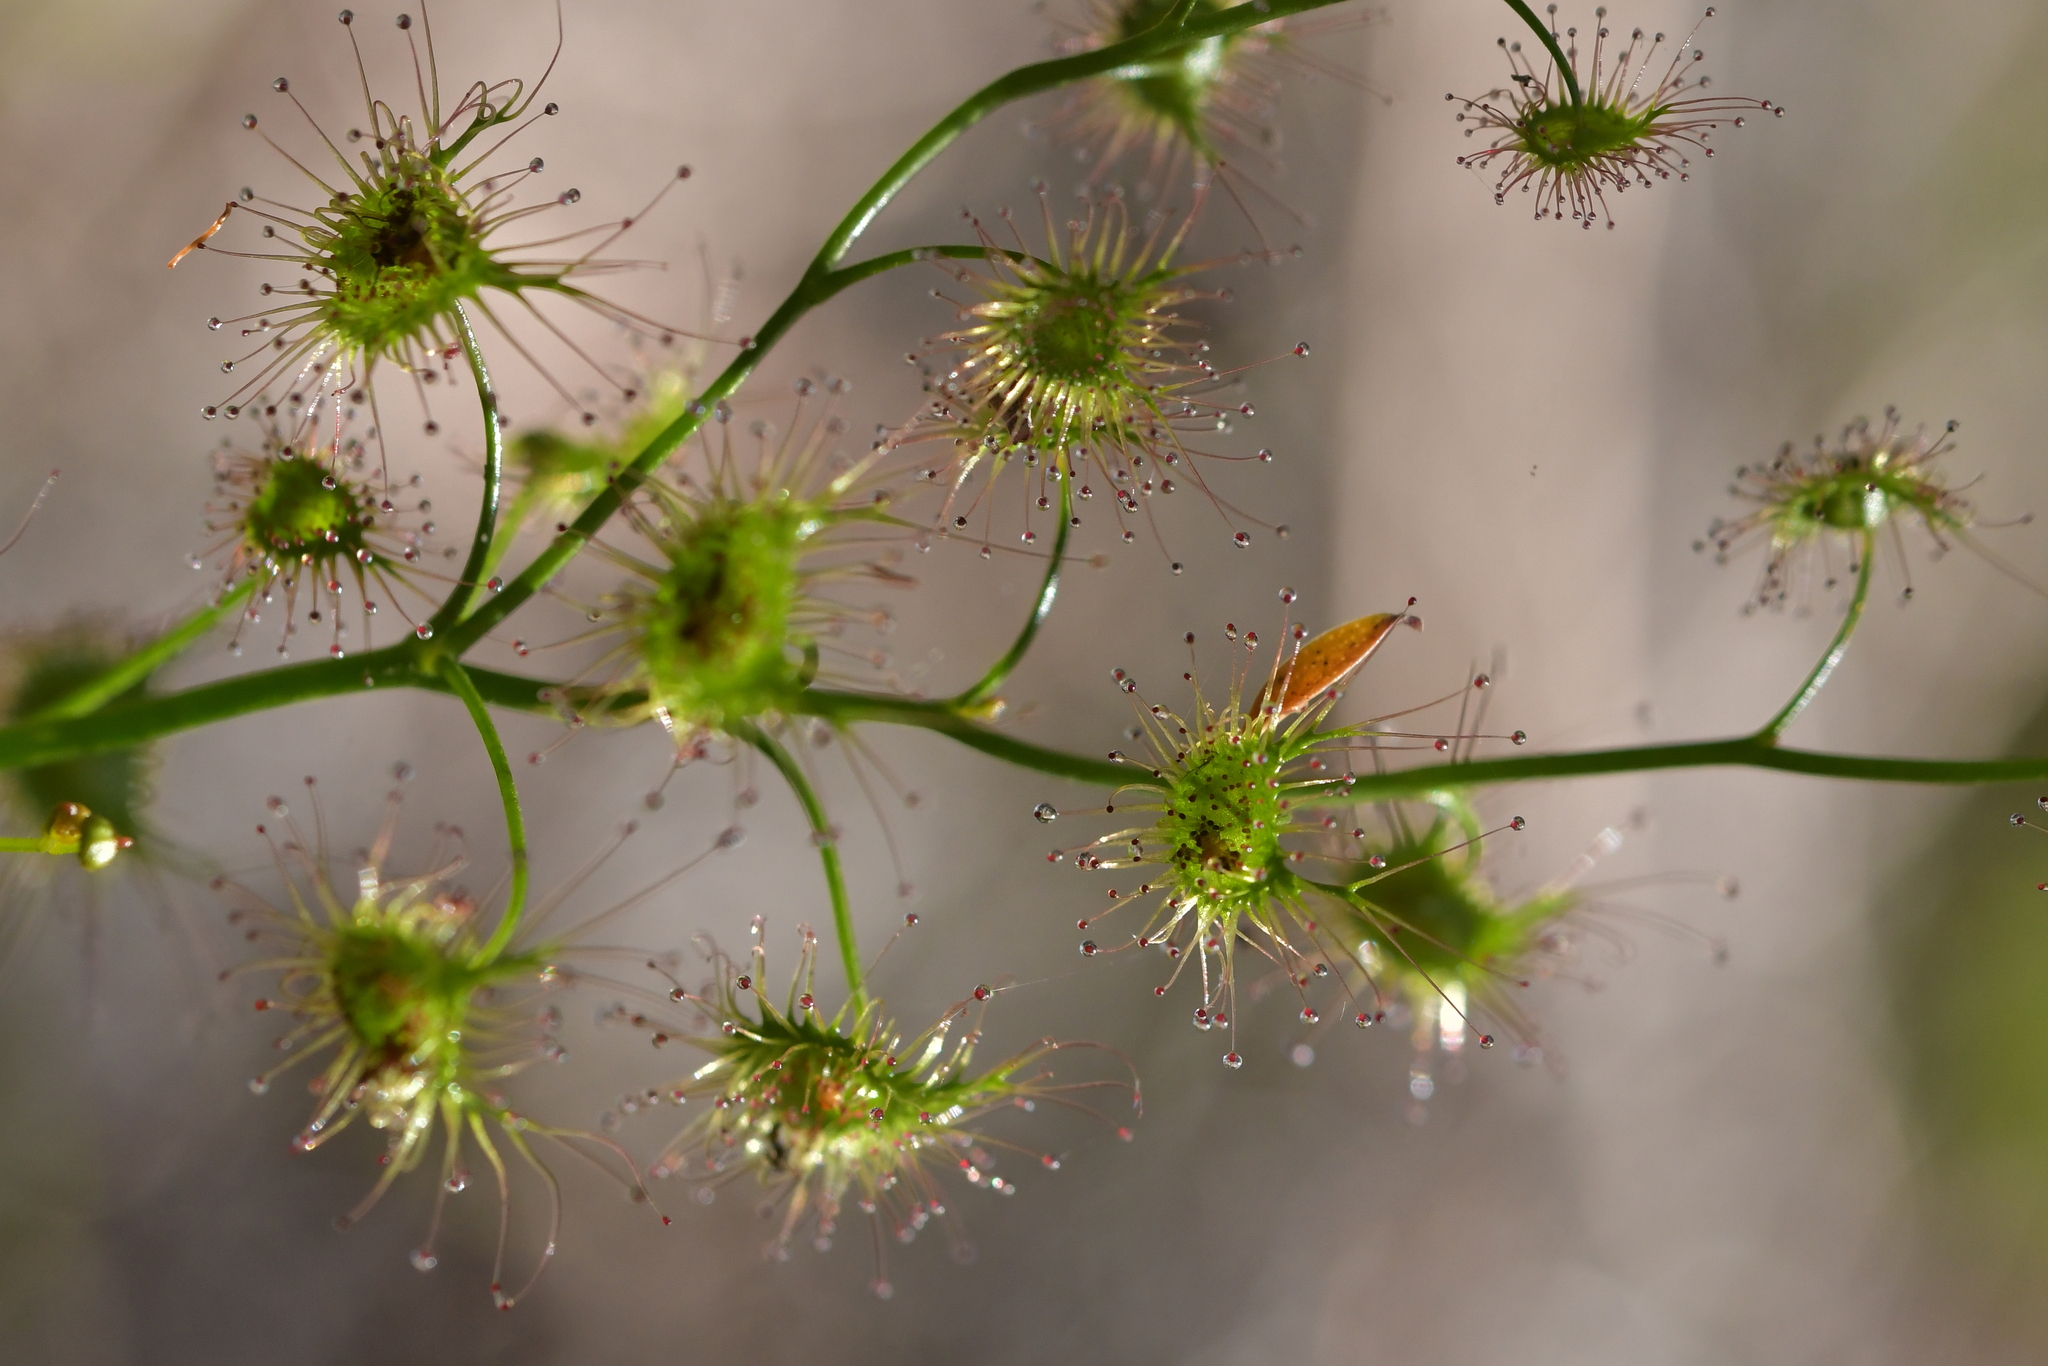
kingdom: Plantae
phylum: Tracheophyta
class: Magnoliopsida
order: Caryophyllales
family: Droseraceae
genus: Drosera
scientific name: Drosera peltata
